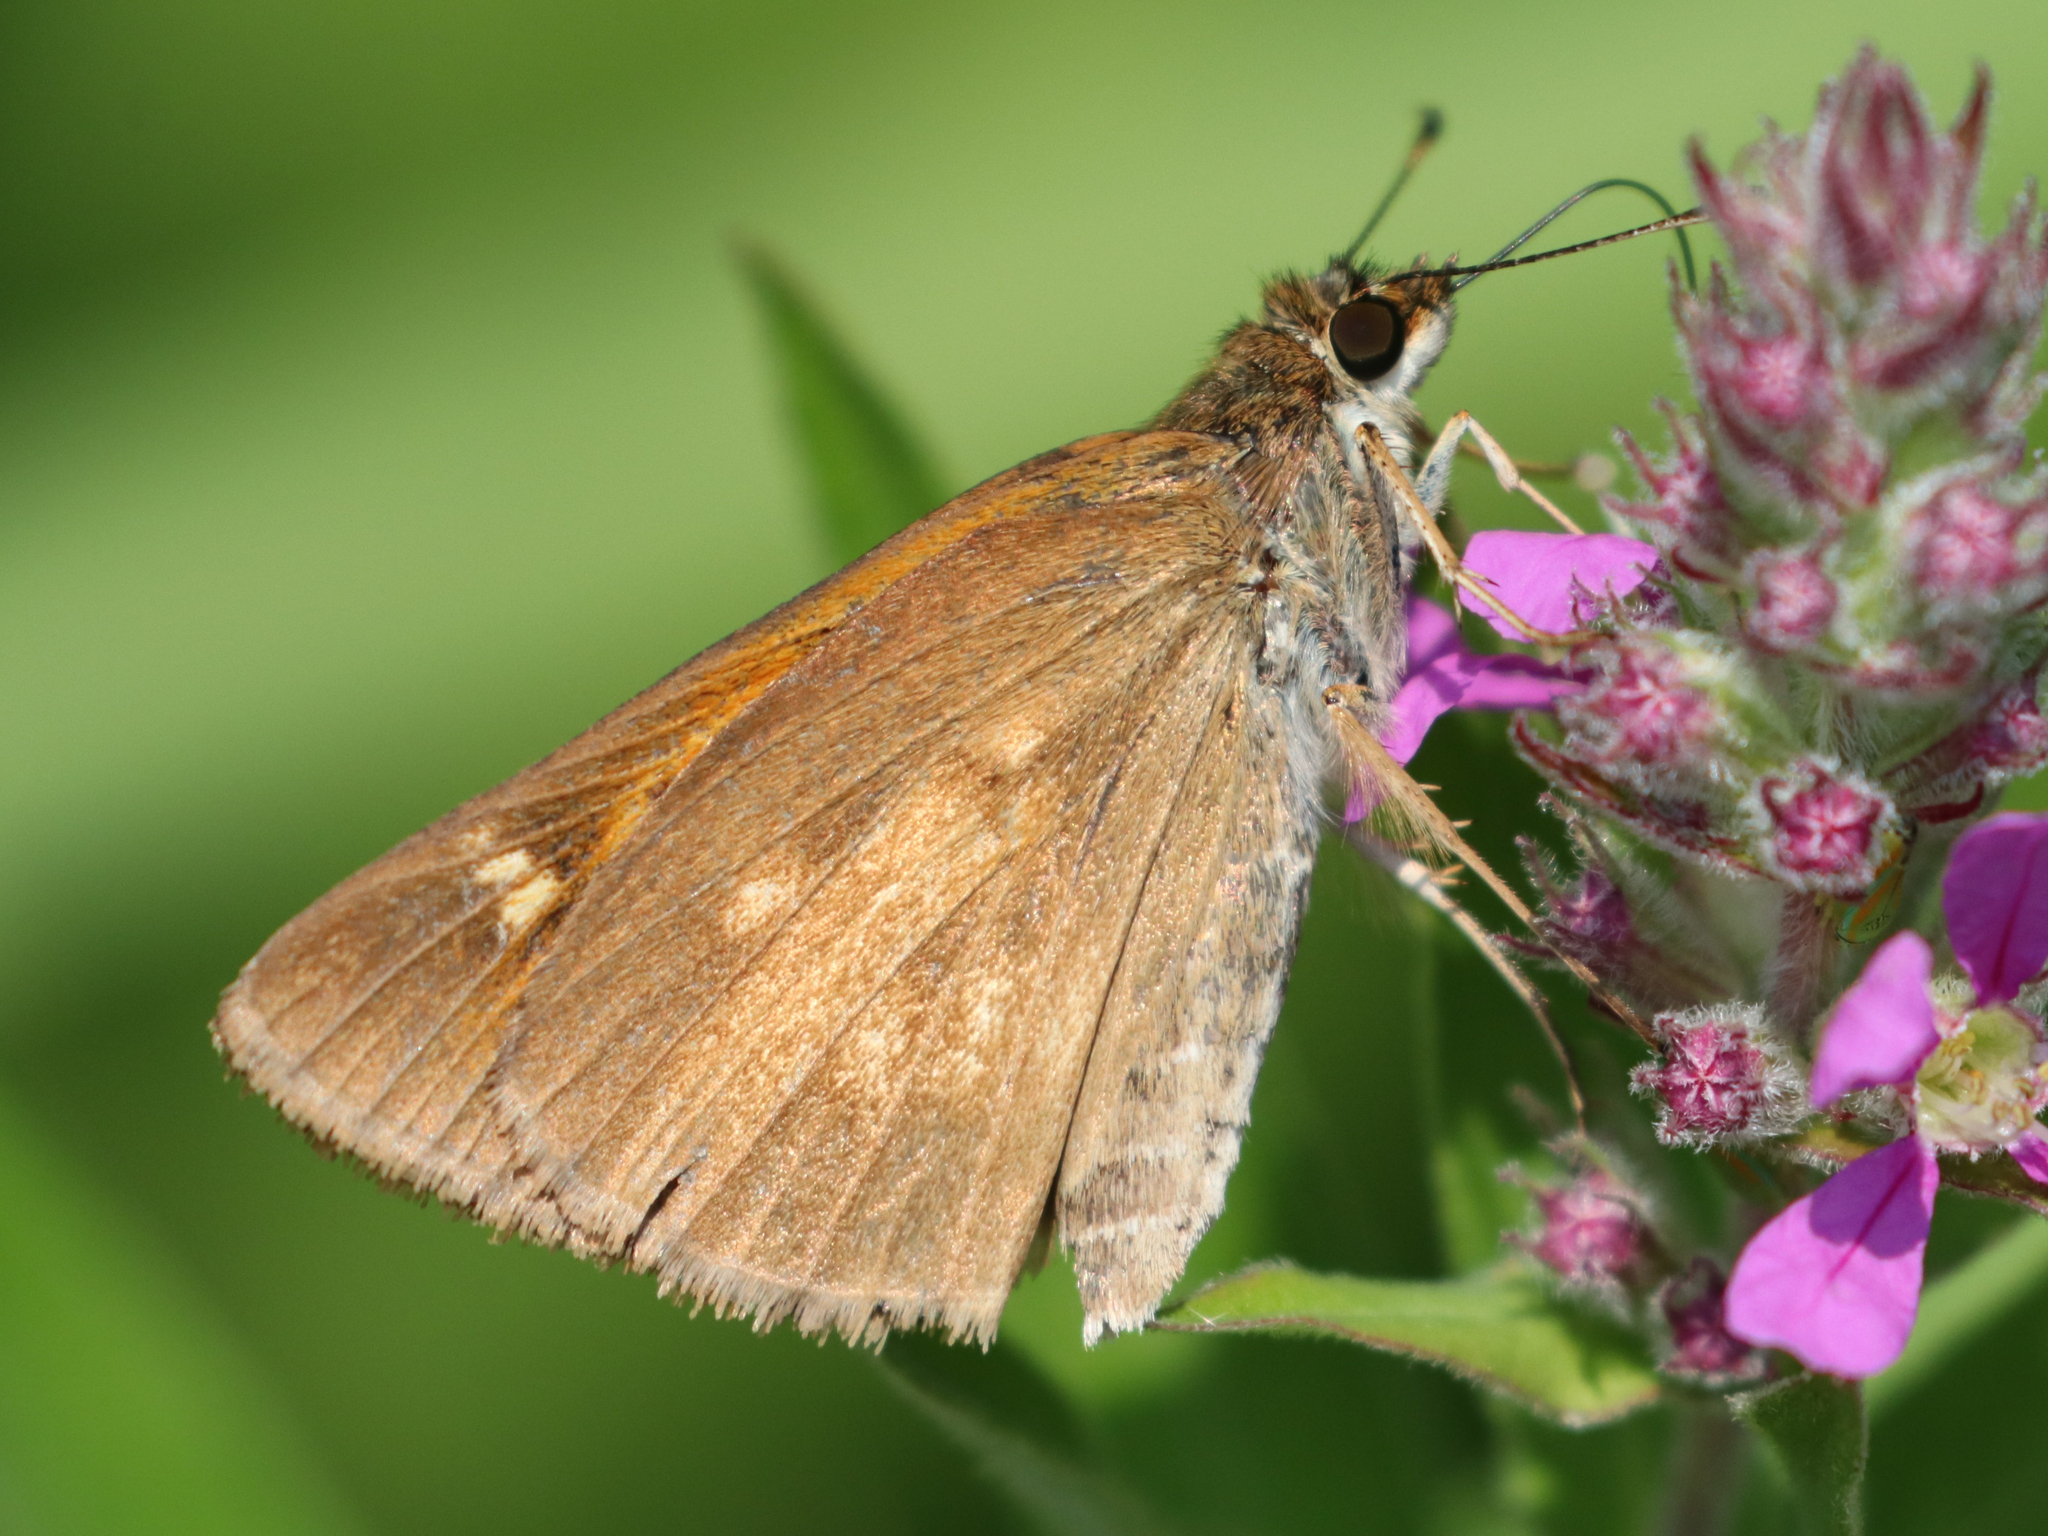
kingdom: Animalia
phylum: Arthropoda
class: Insecta
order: Lepidoptera
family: Hesperiidae
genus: Poanes
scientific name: Poanes viator
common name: Broad-winged skipper
